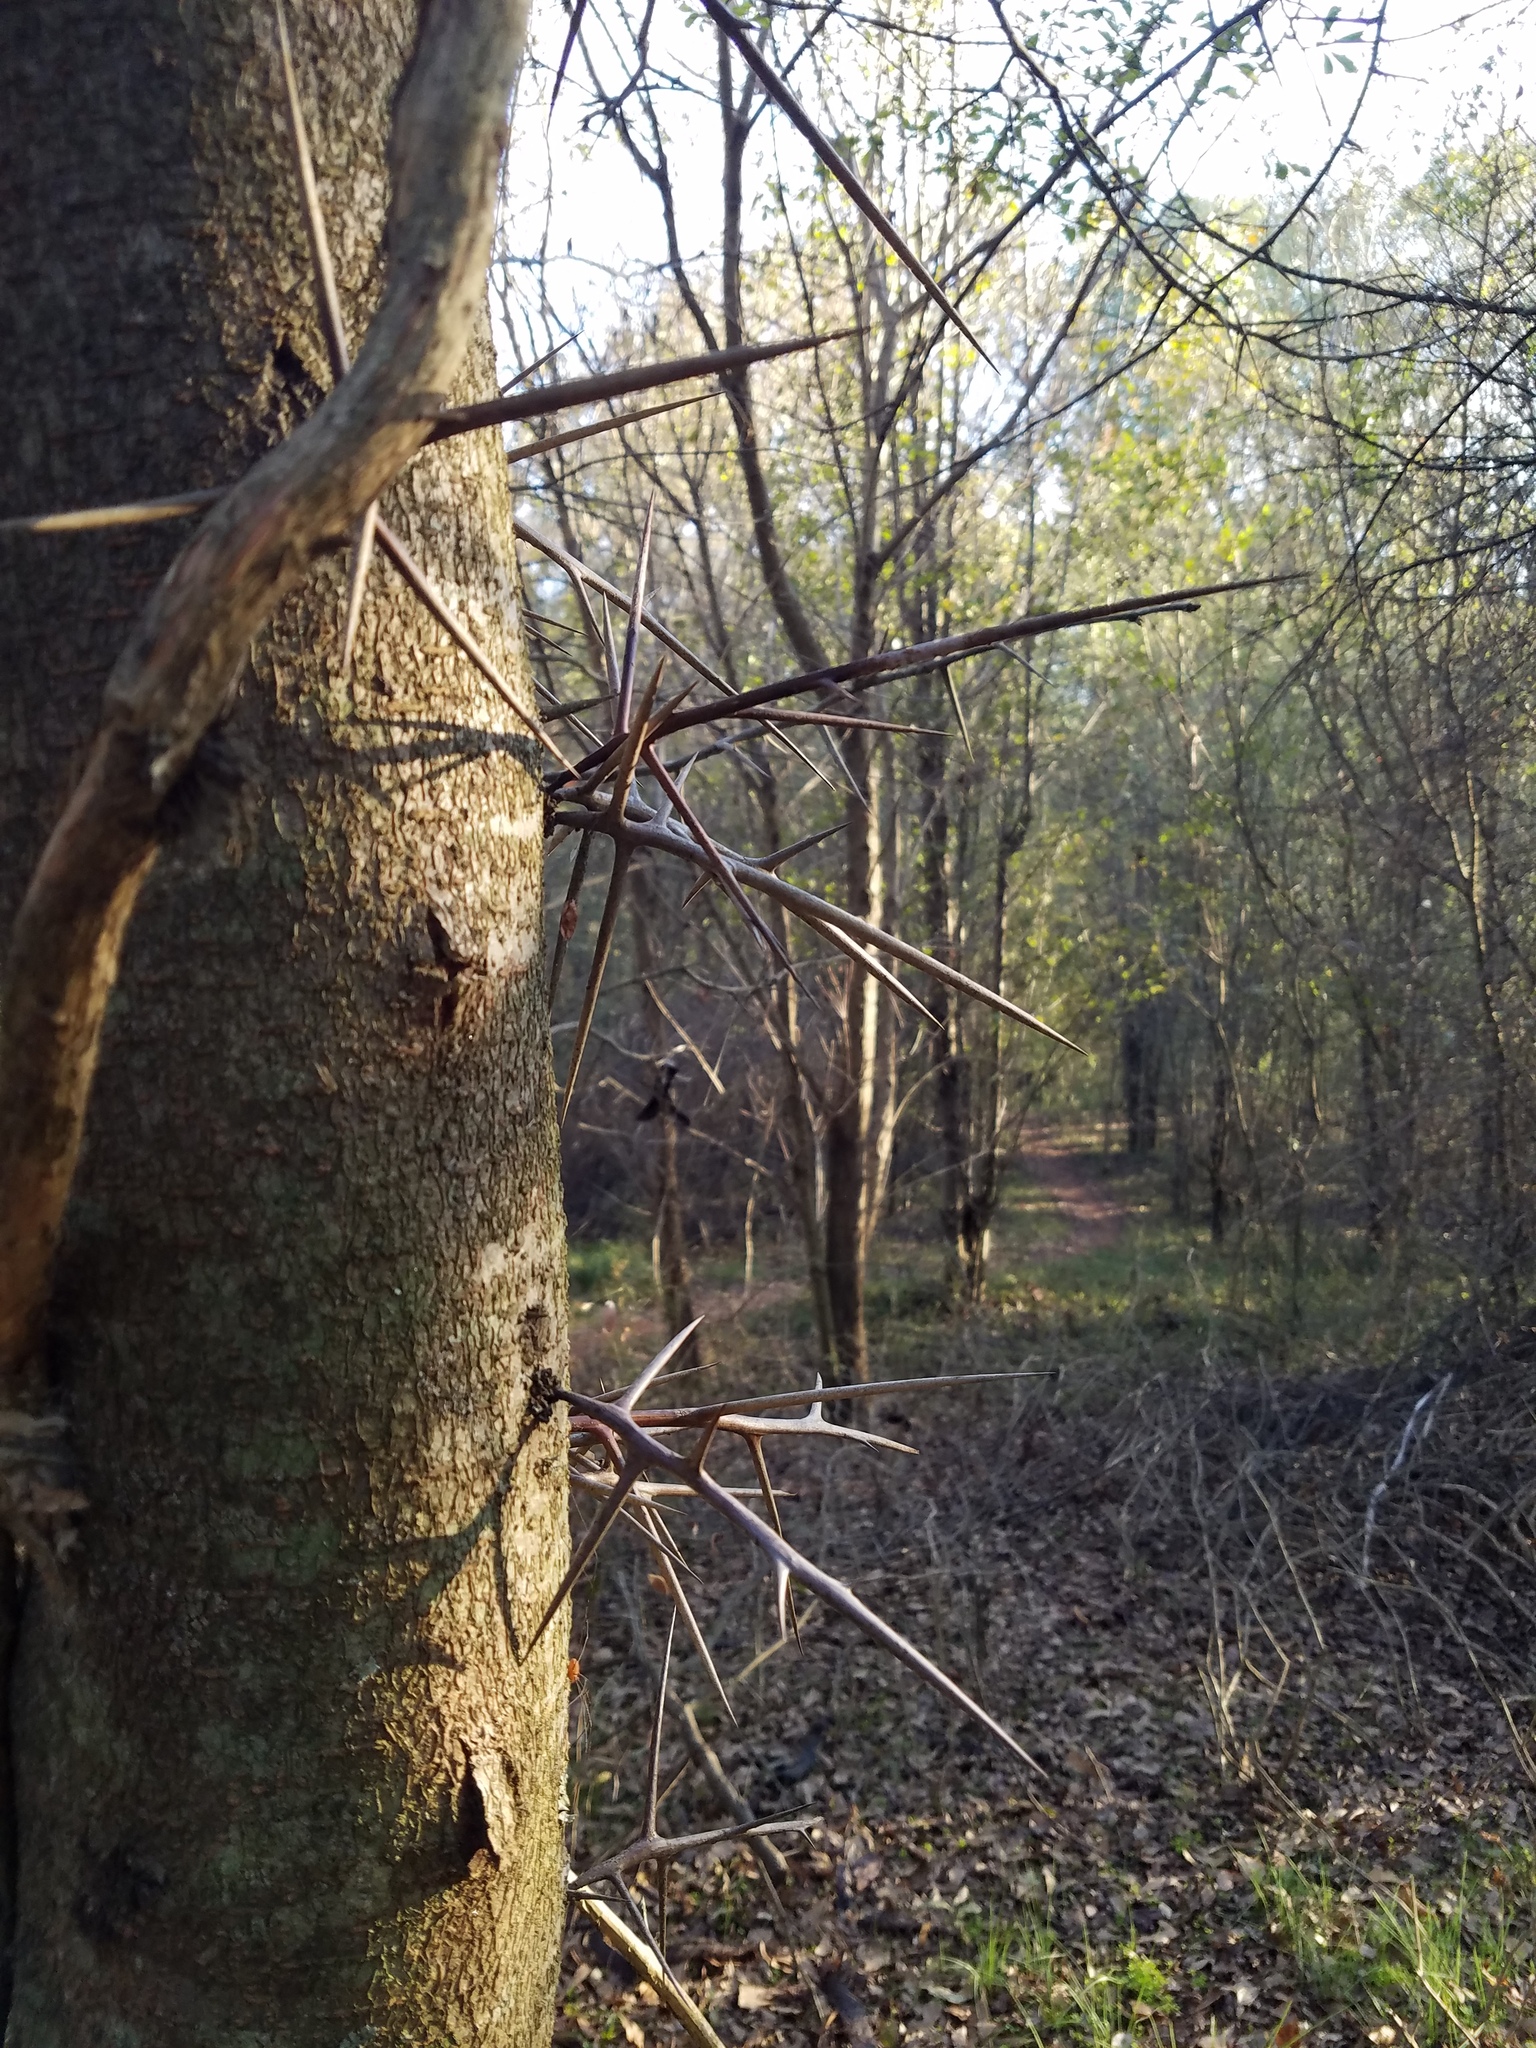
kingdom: Plantae
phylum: Tracheophyta
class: Magnoliopsida
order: Fabales
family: Fabaceae
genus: Gleditsia
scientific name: Gleditsia triacanthos
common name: Common honeylocust
